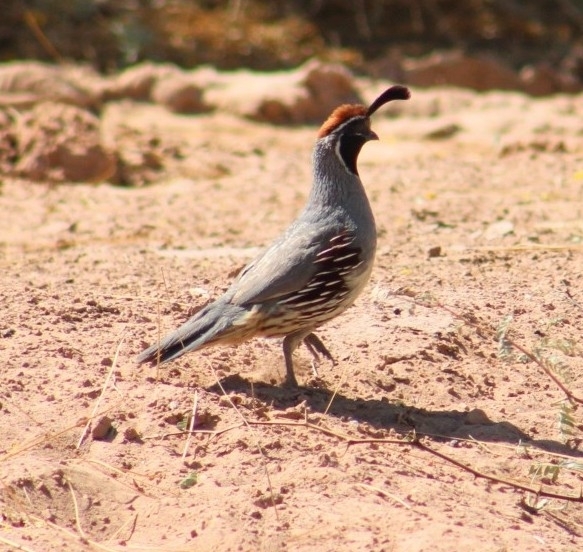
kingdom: Animalia
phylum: Chordata
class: Aves
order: Galliformes
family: Odontophoridae
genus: Callipepla
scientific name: Callipepla gambelii
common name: Gambel's quail
